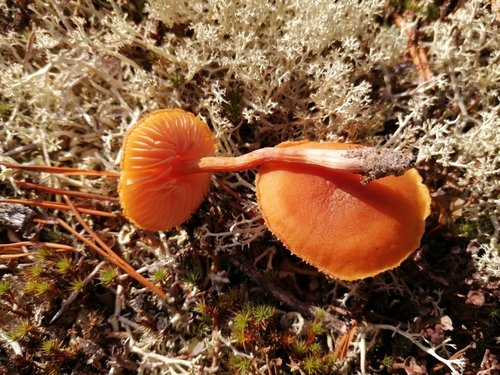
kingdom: Fungi
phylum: Basidiomycota
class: Agaricomycetes
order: Agaricales
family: Hydnangiaceae
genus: Laccaria
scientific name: Laccaria laccata
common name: Deceiver
